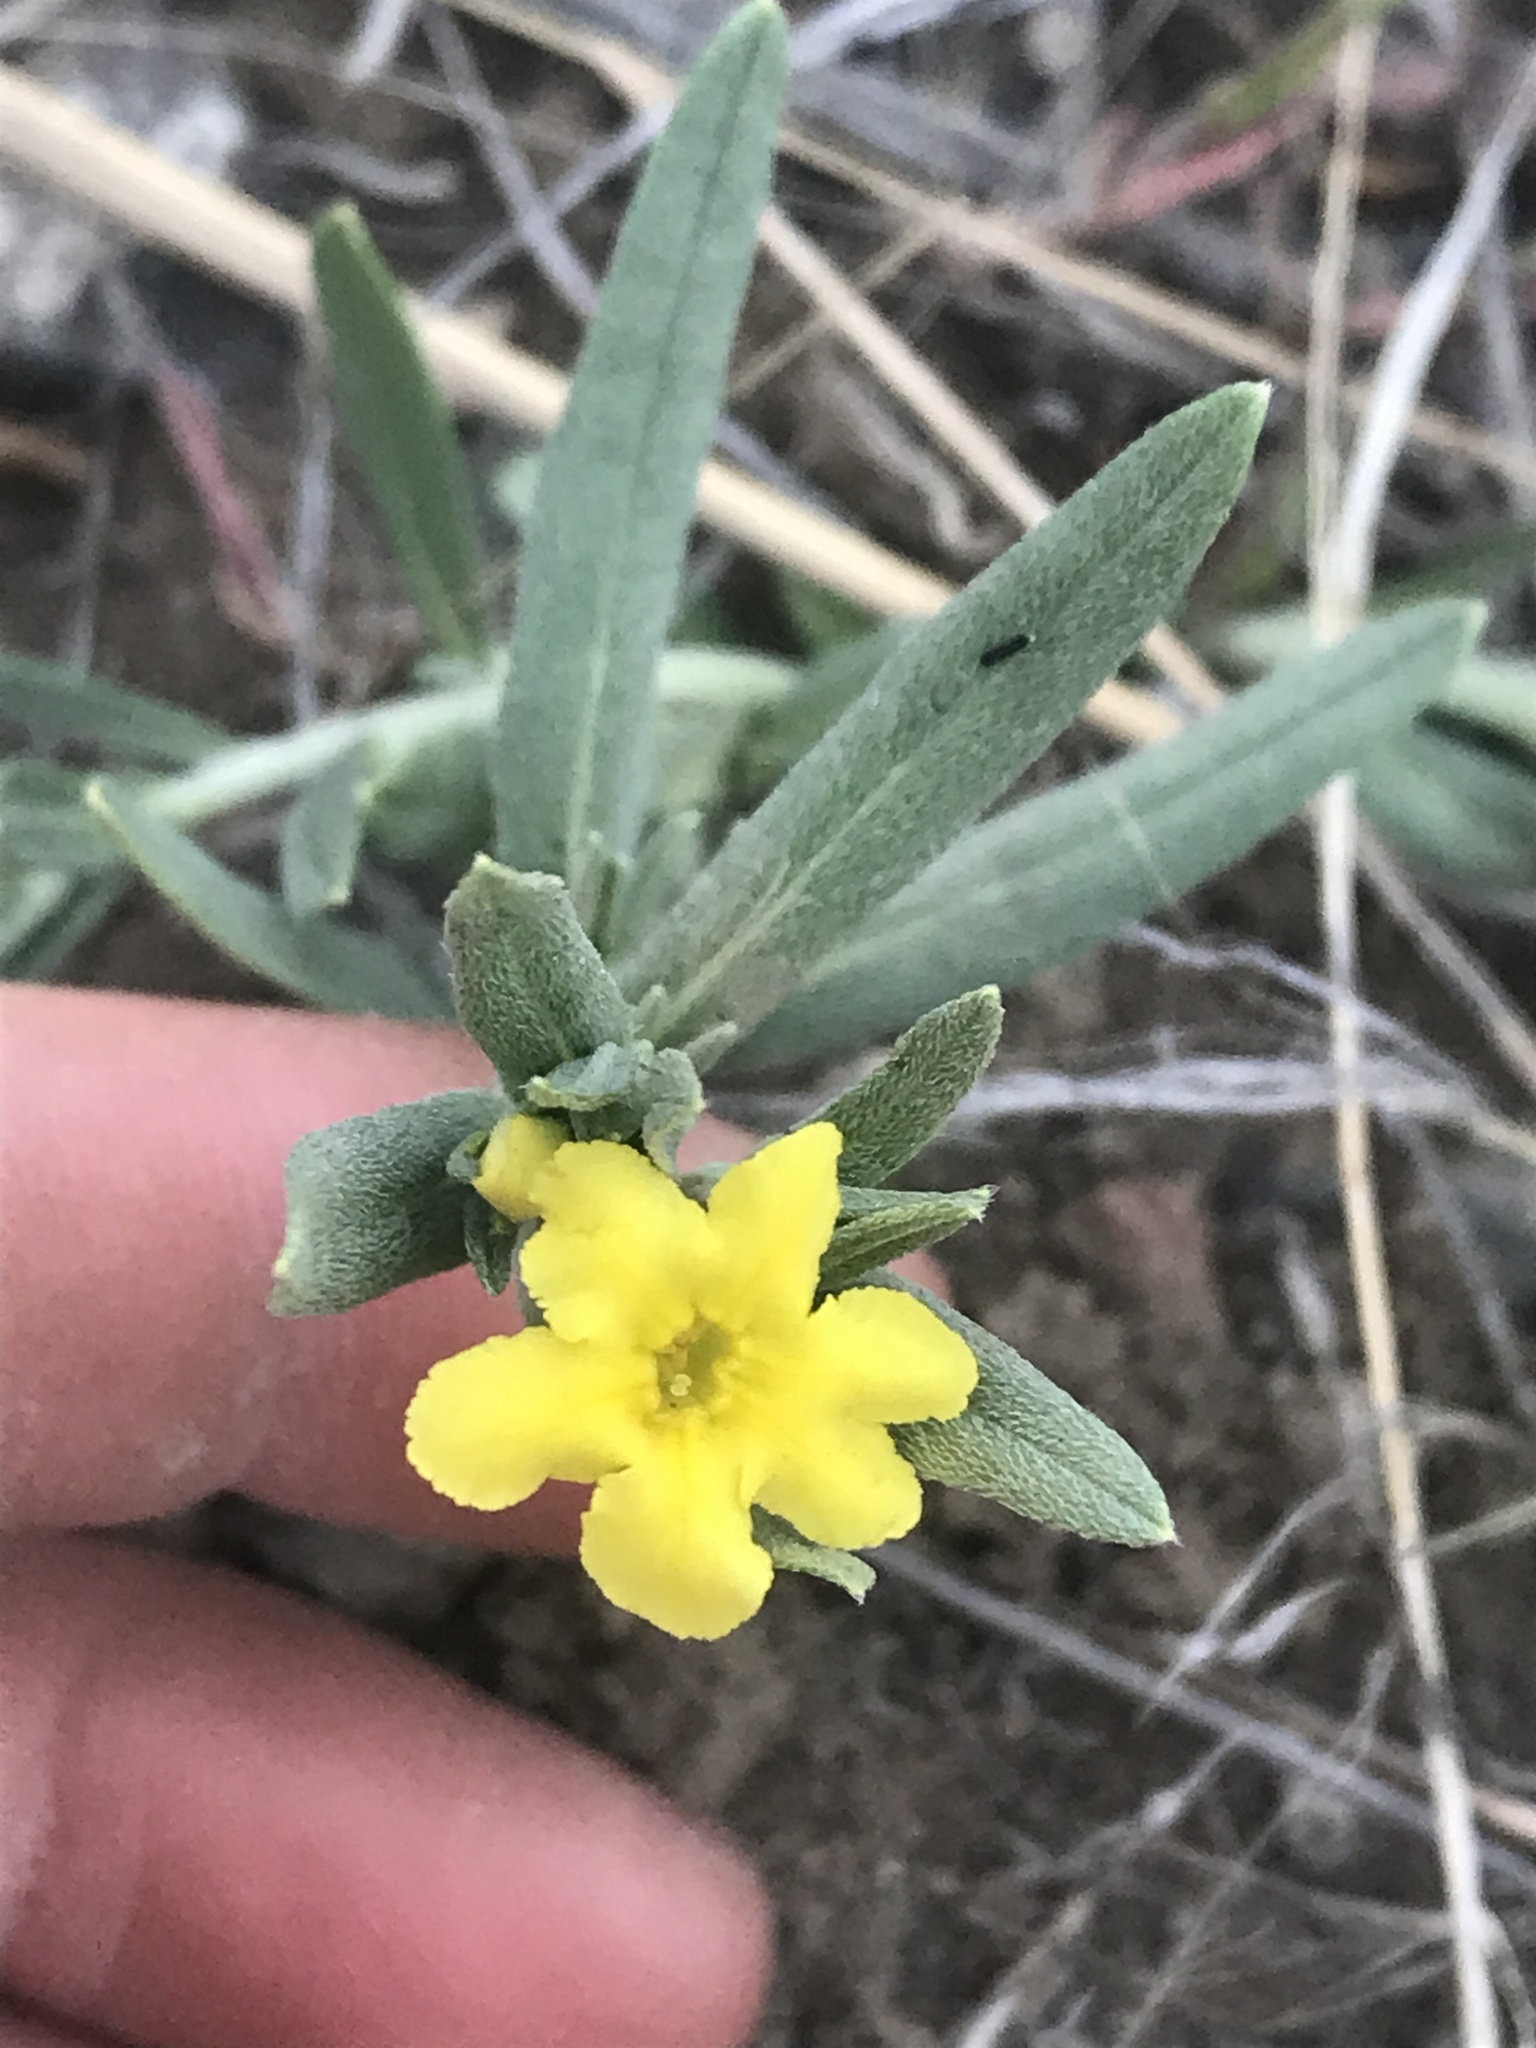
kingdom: Plantae
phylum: Tracheophyta
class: Magnoliopsida
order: Boraginales
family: Boraginaceae
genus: Lithospermum
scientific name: Lithospermum incisum
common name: Fringed gromwell
